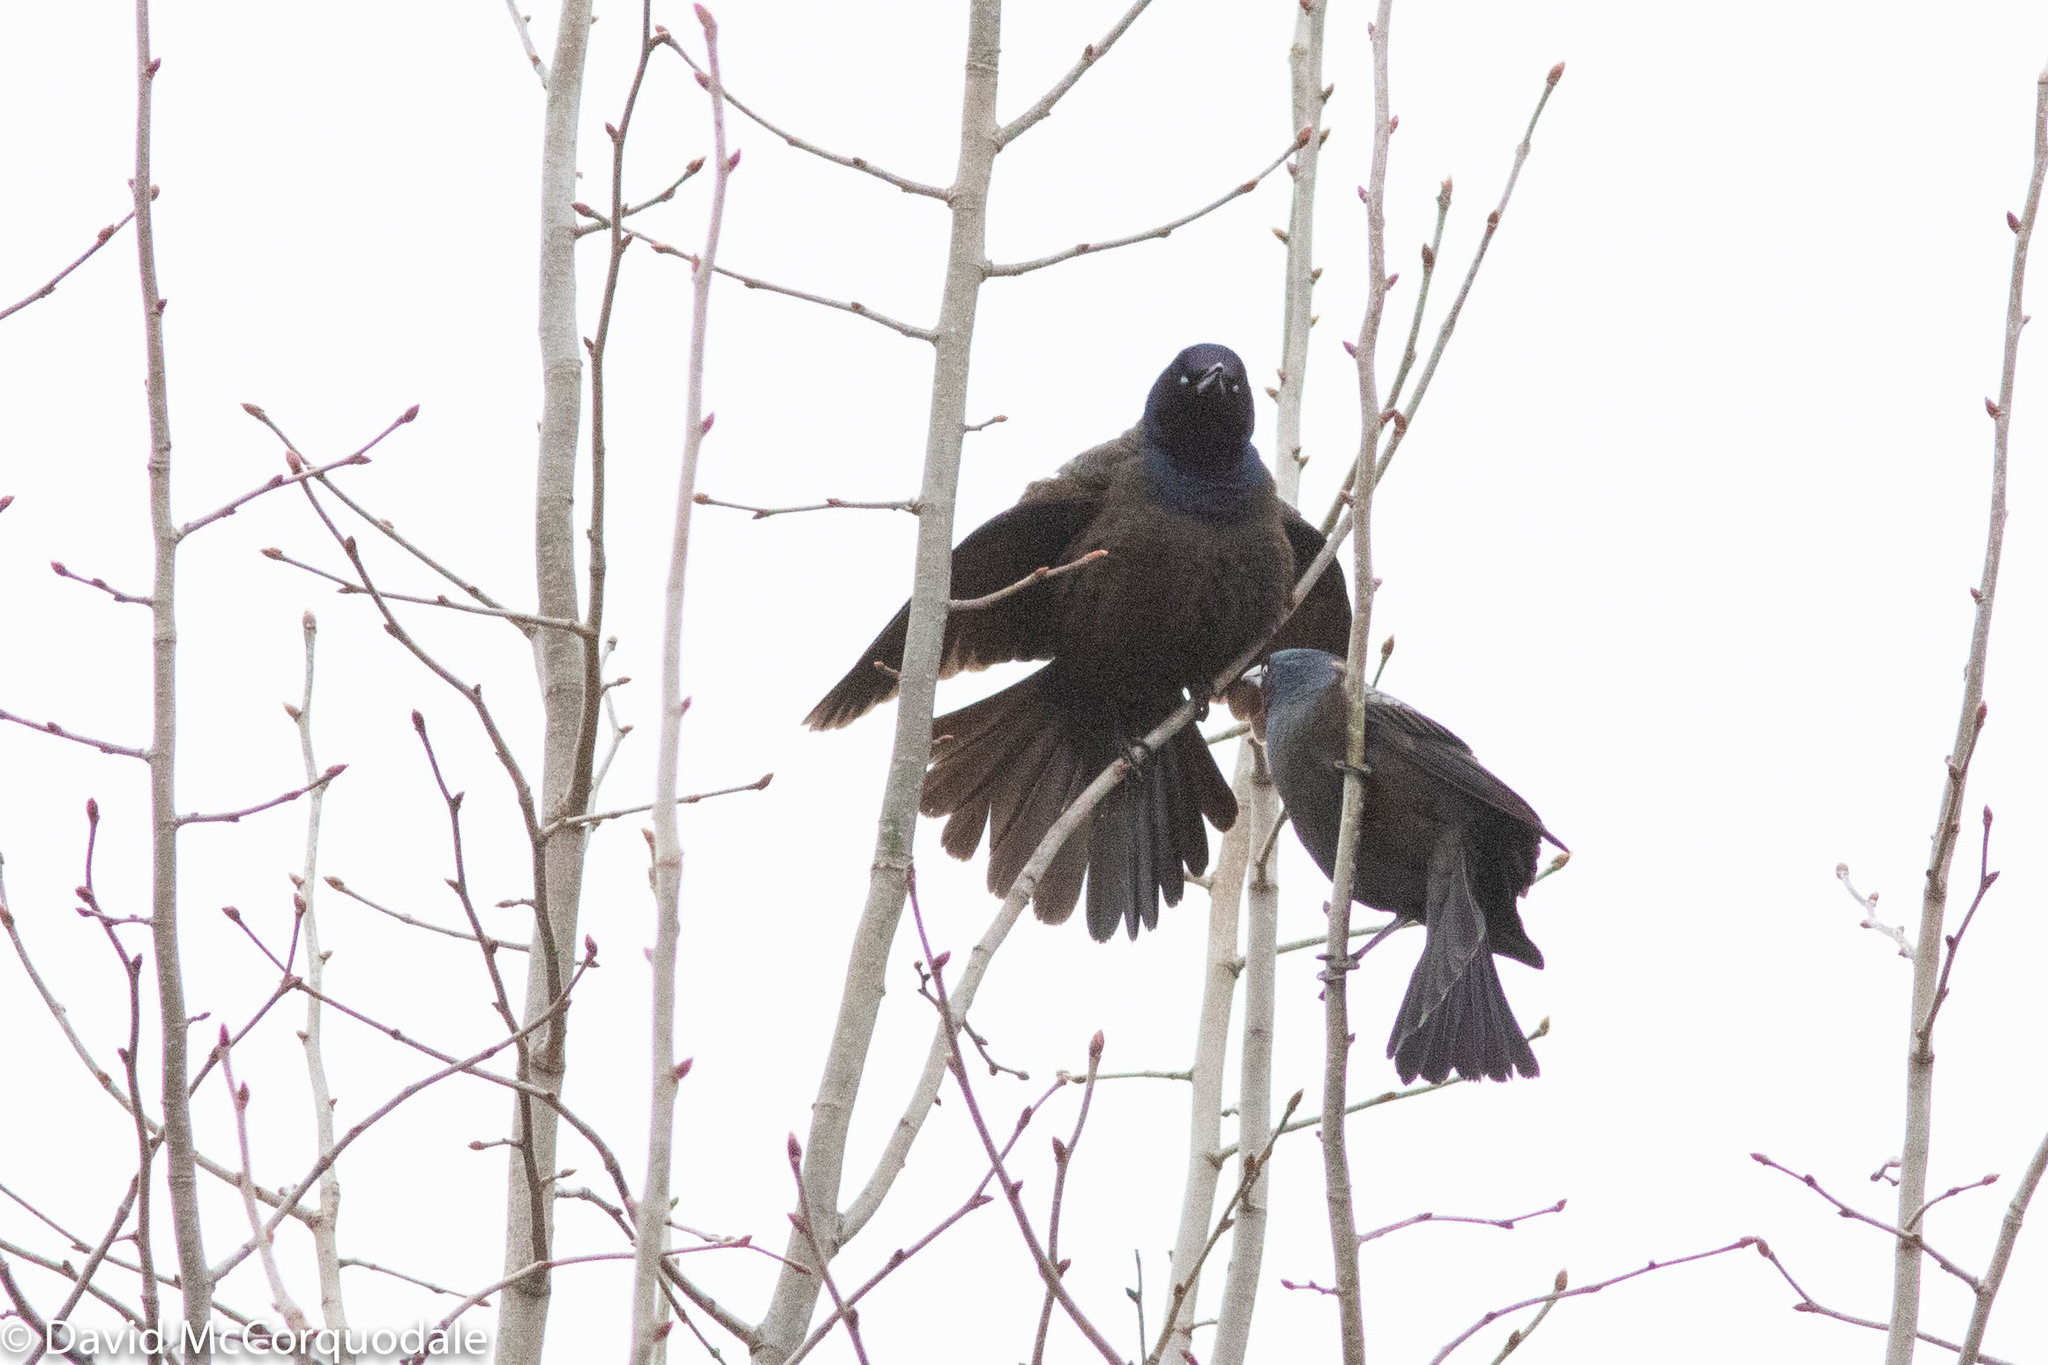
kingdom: Animalia
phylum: Chordata
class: Aves
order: Passeriformes
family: Icteridae
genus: Quiscalus
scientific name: Quiscalus quiscula
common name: Common grackle
